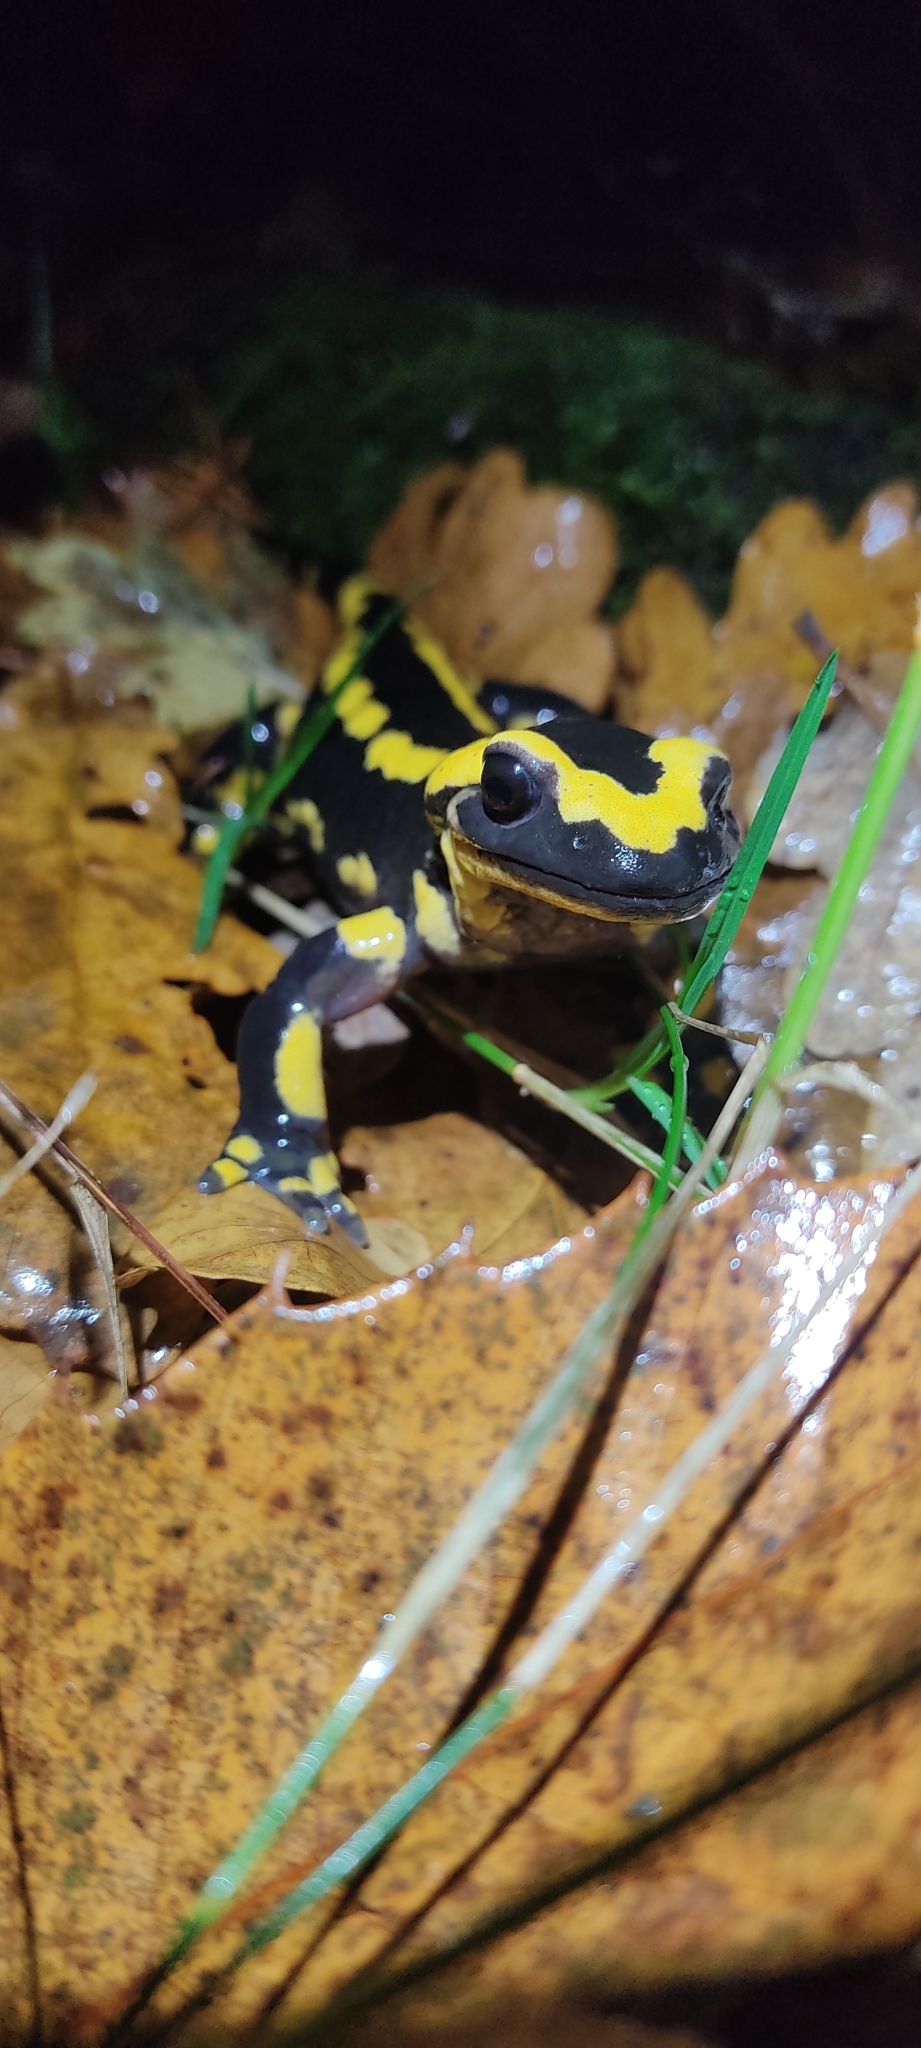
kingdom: Animalia
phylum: Chordata
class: Amphibia
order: Caudata
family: Salamandridae
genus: Salamandra
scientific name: Salamandra salamandra
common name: Fire salamander
